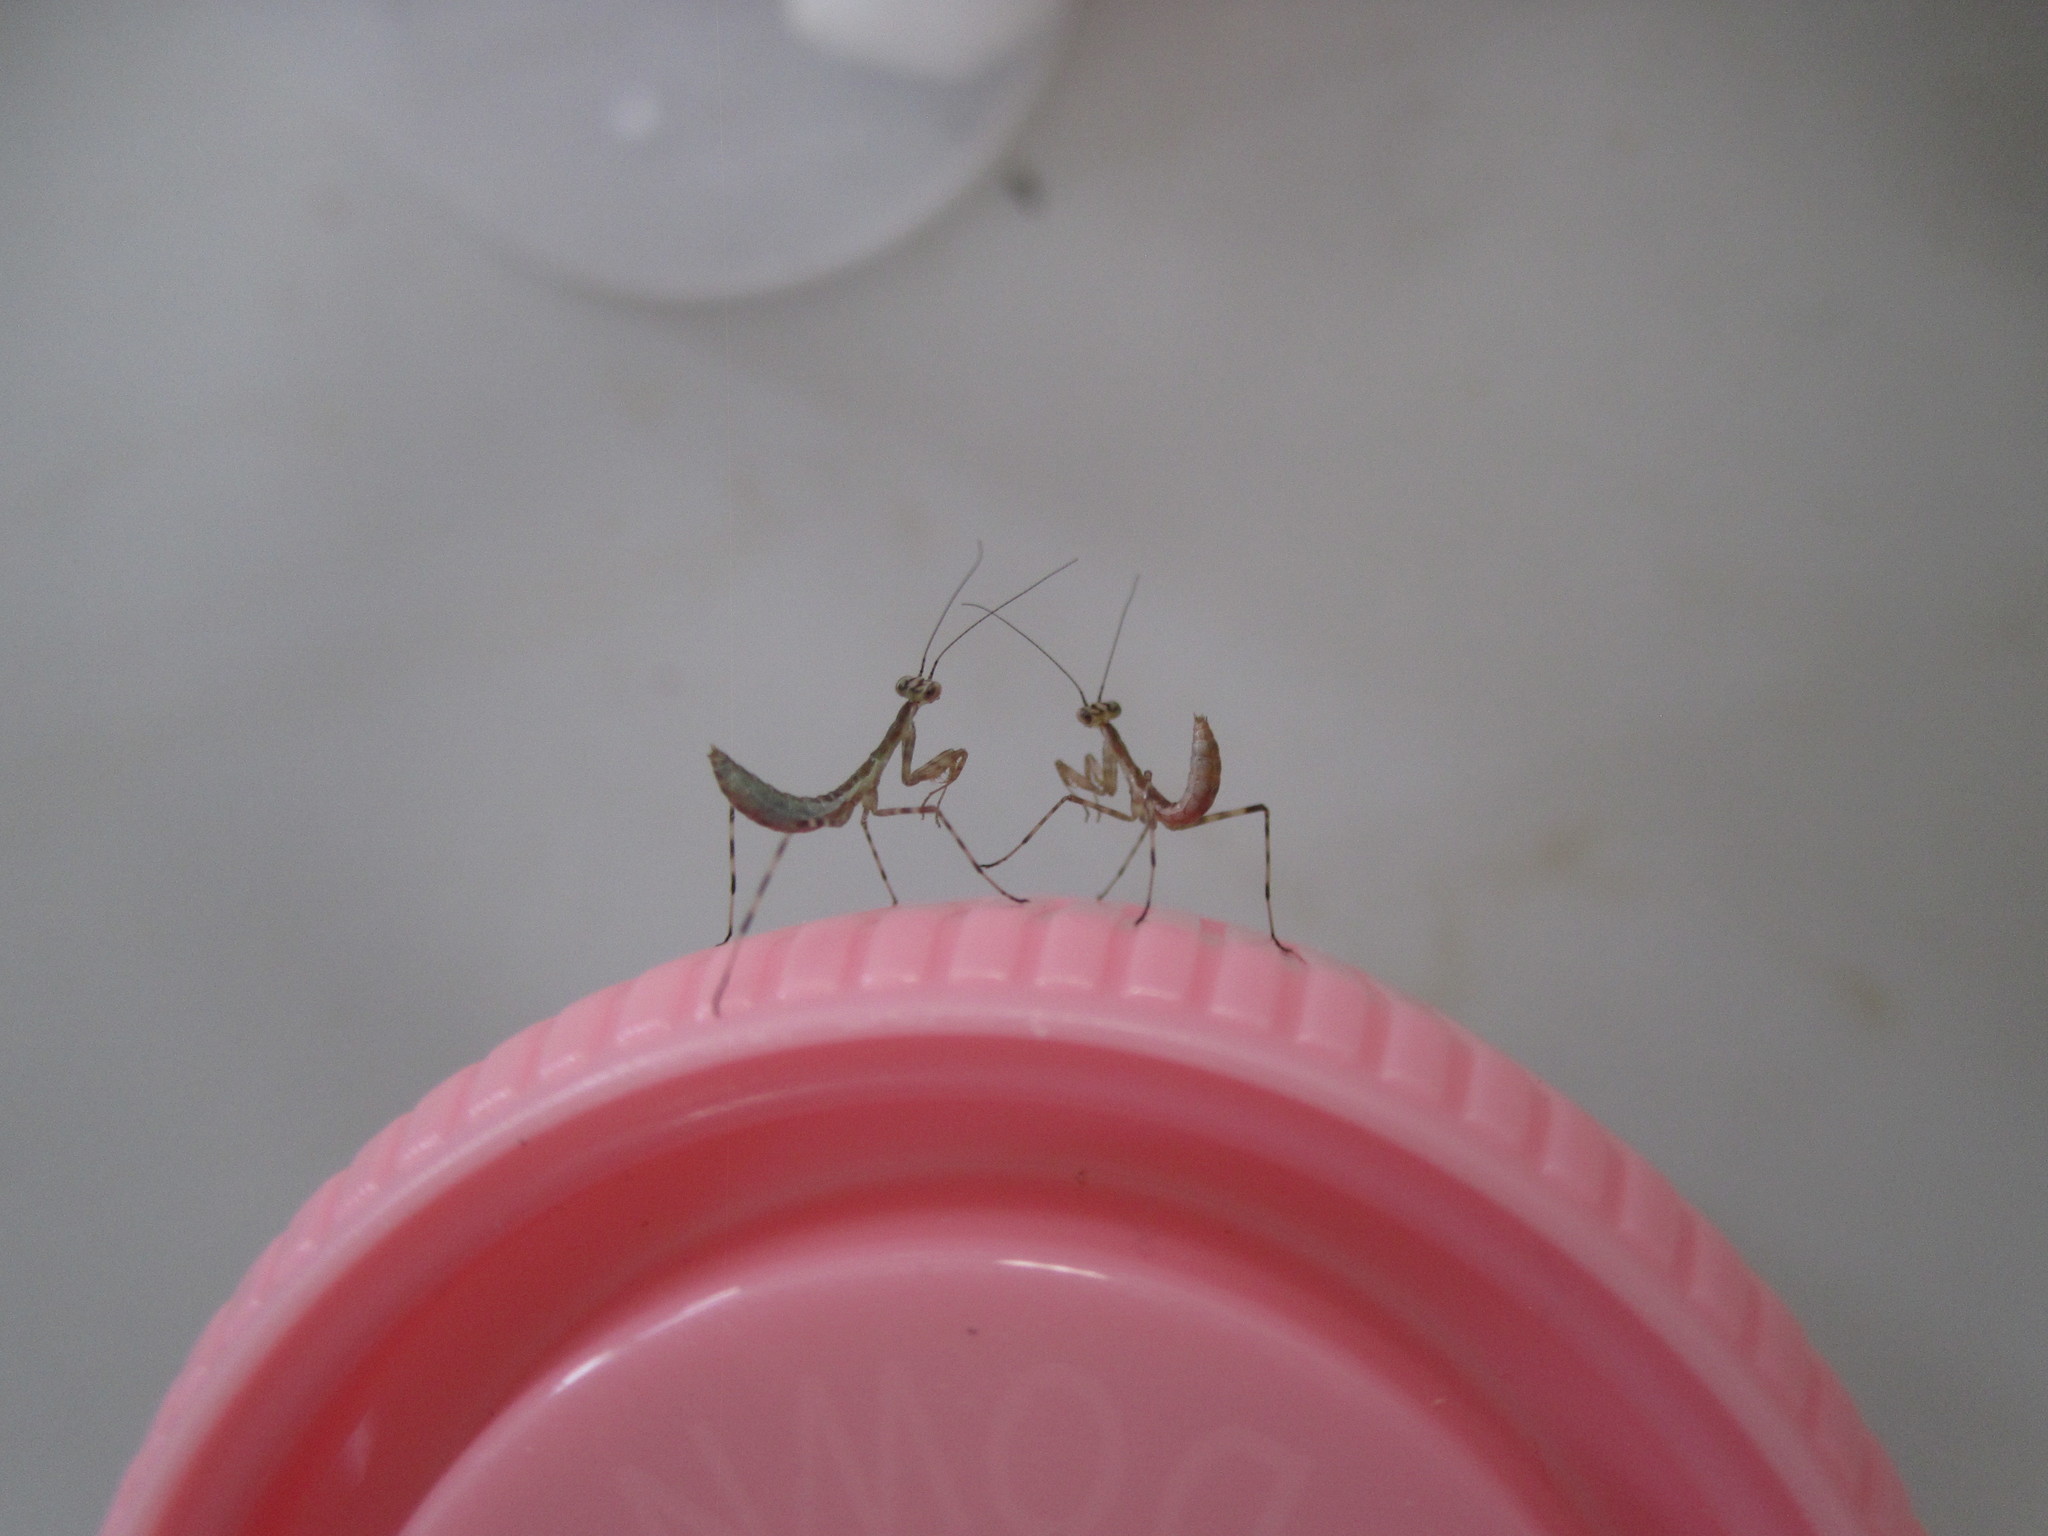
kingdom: Animalia
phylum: Arthropoda
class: Insecta
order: Mantodea
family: Miomantidae
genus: Miomantis
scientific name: Miomantis caffra
